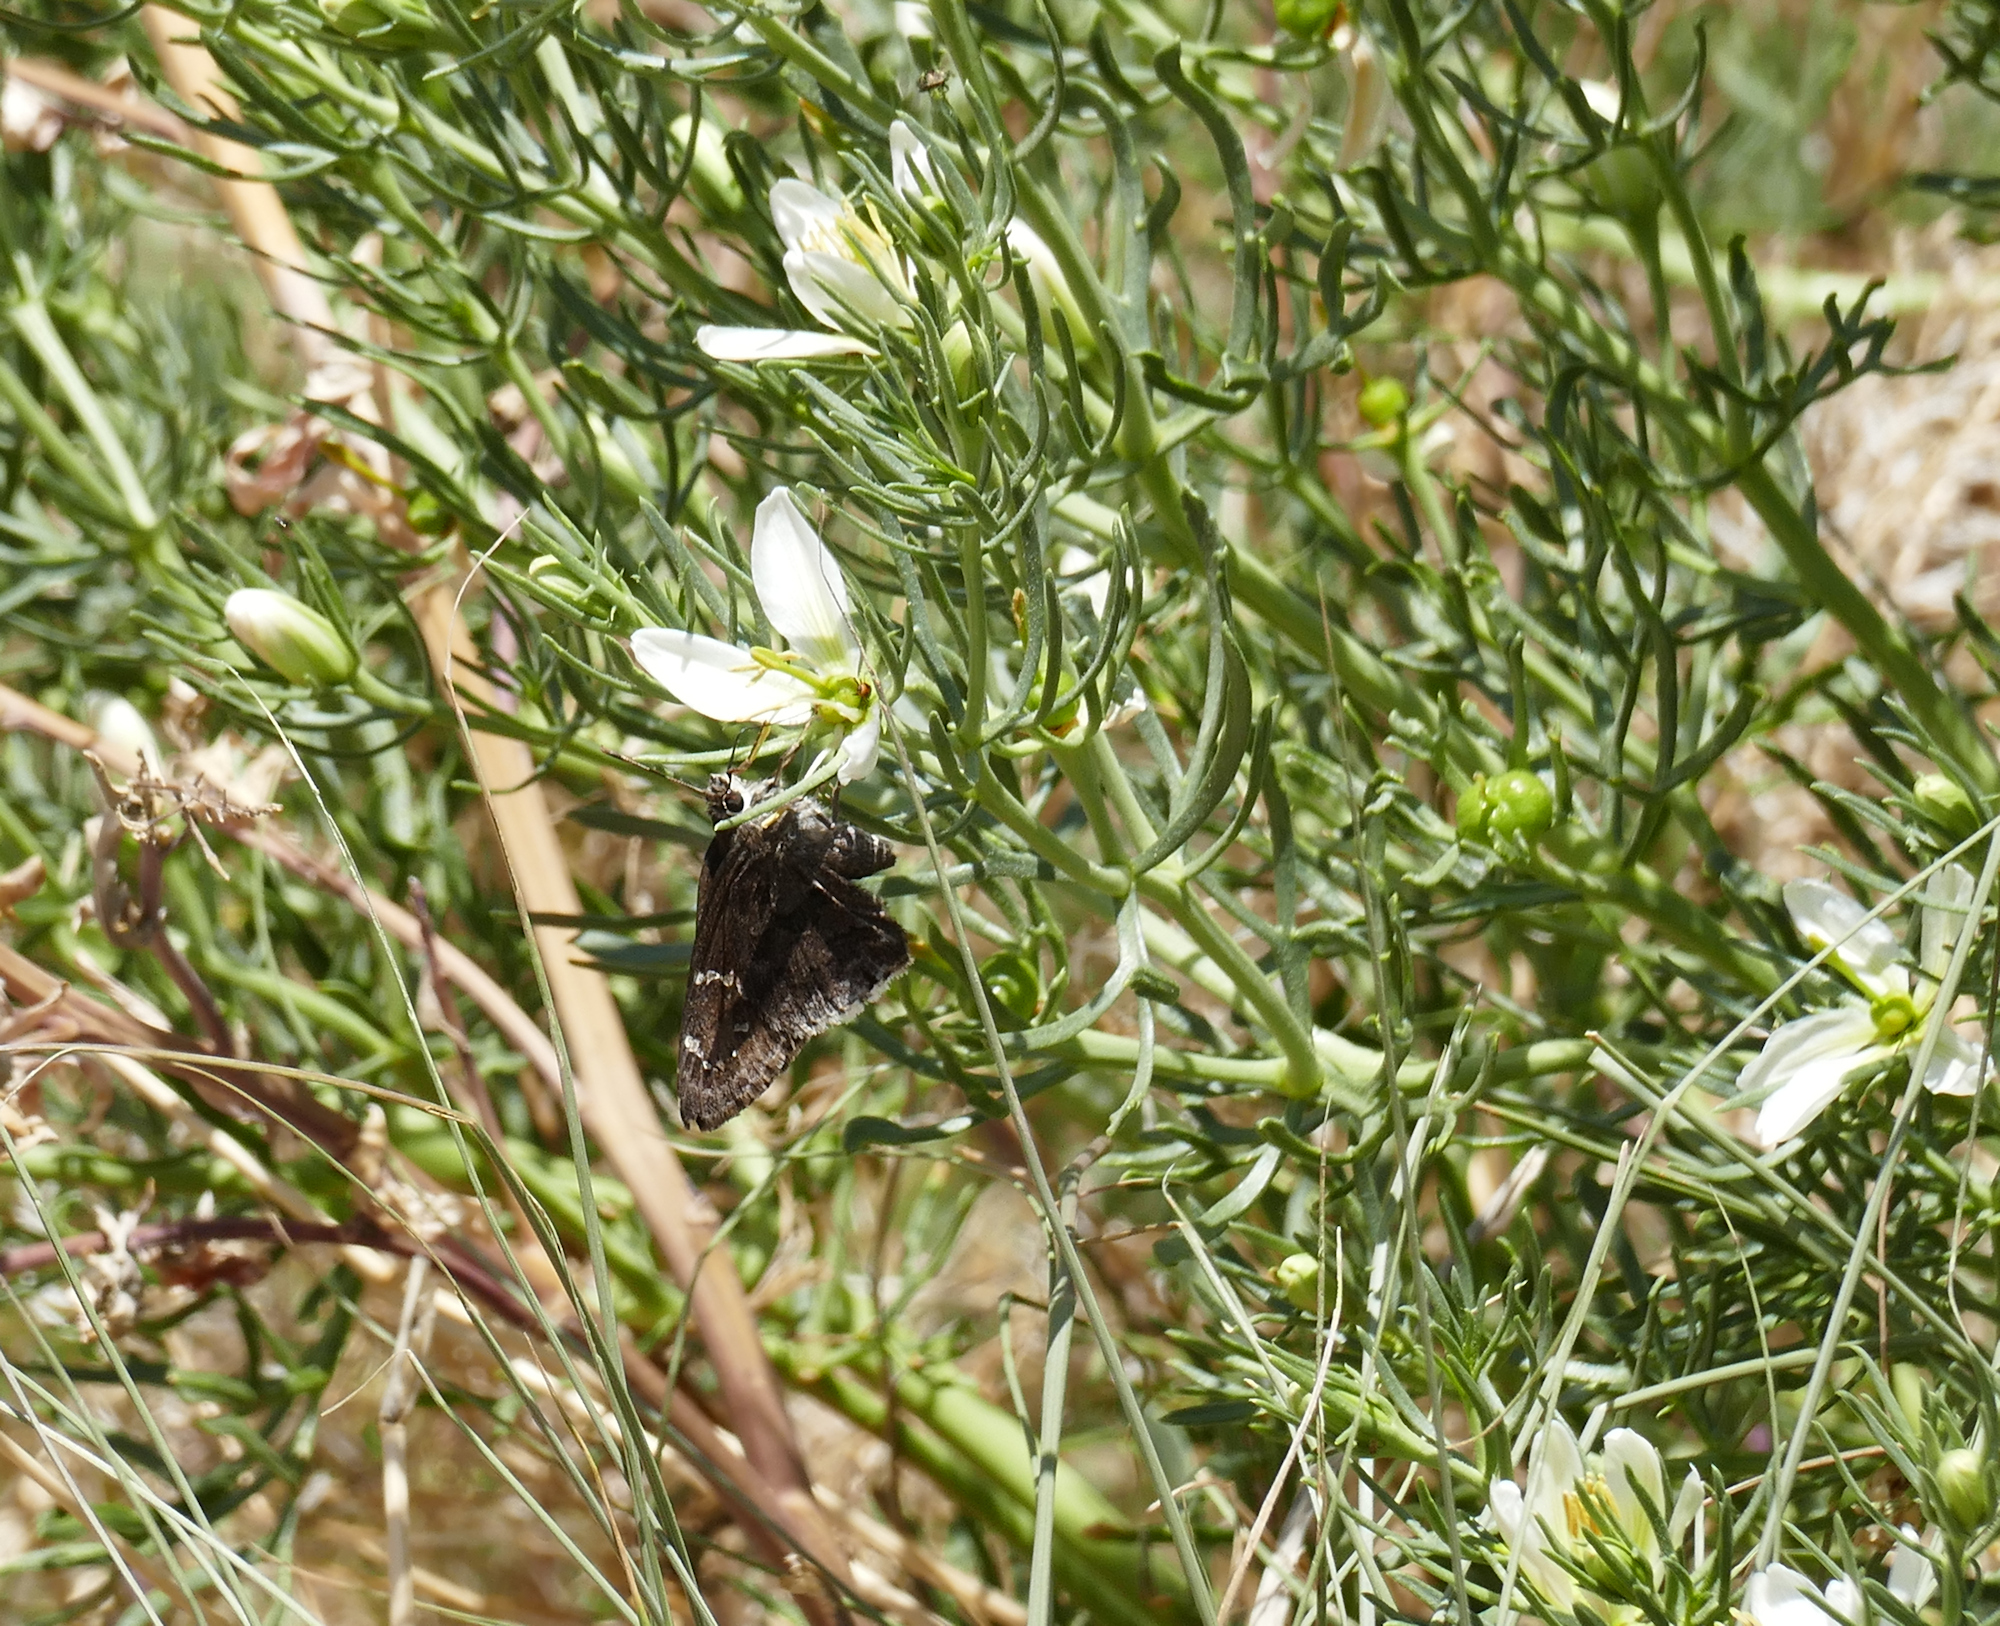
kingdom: Plantae
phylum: Tracheophyta
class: Magnoliopsida
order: Sapindales
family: Tetradiclidaceae
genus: Peganum
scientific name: Peganum harmala
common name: Harmal peganum
